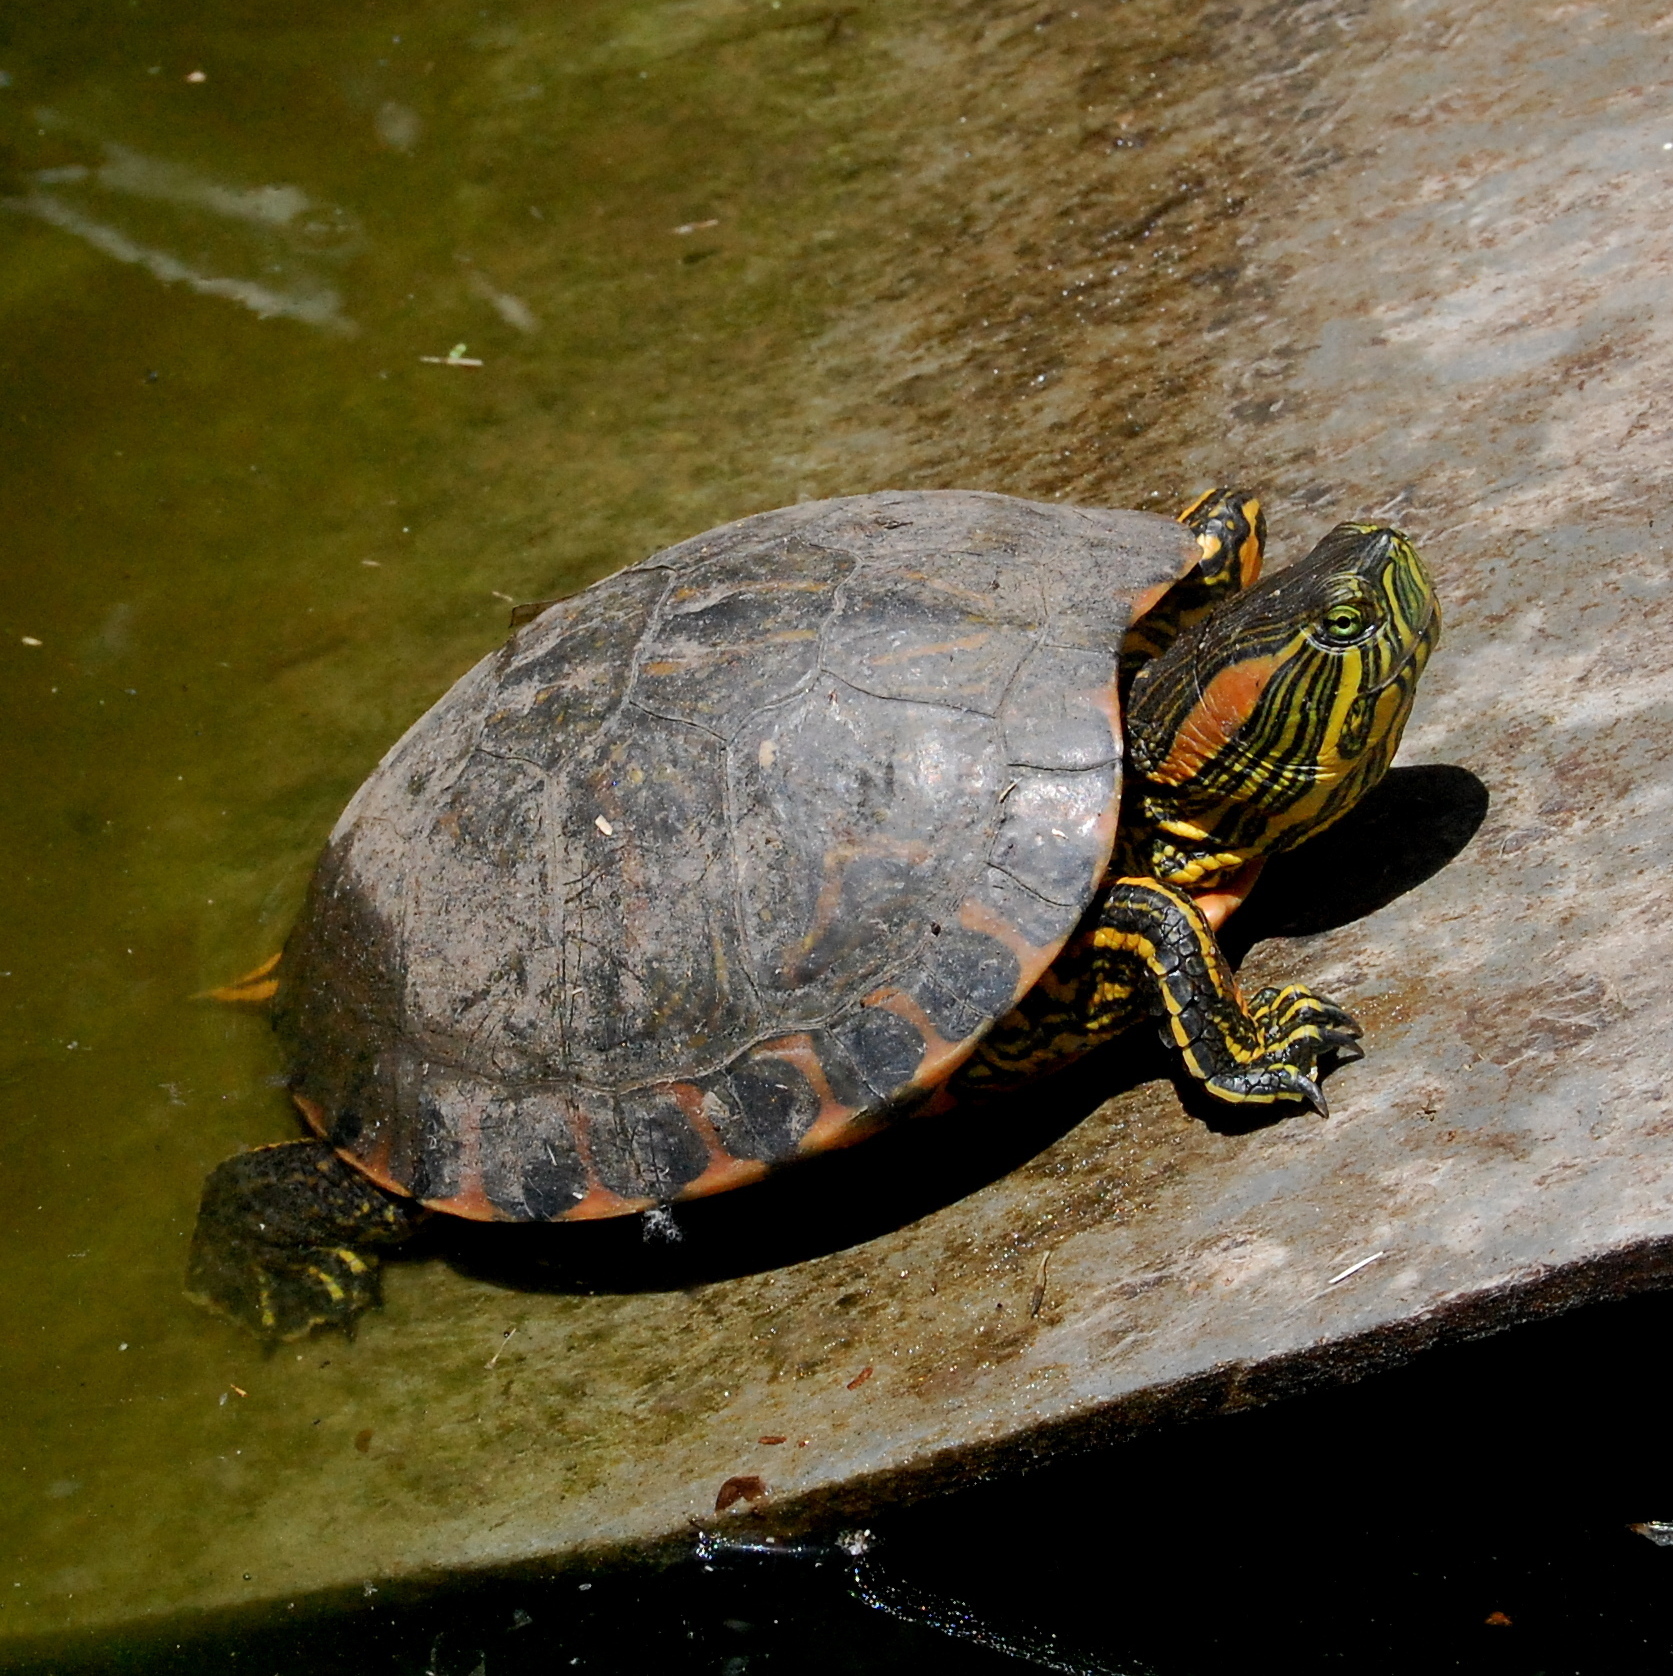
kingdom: Animalia
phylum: Chordata
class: Testudines
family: Emydidae
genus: Trachemys
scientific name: Trachemys dorbigni
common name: Black-bellied slider
